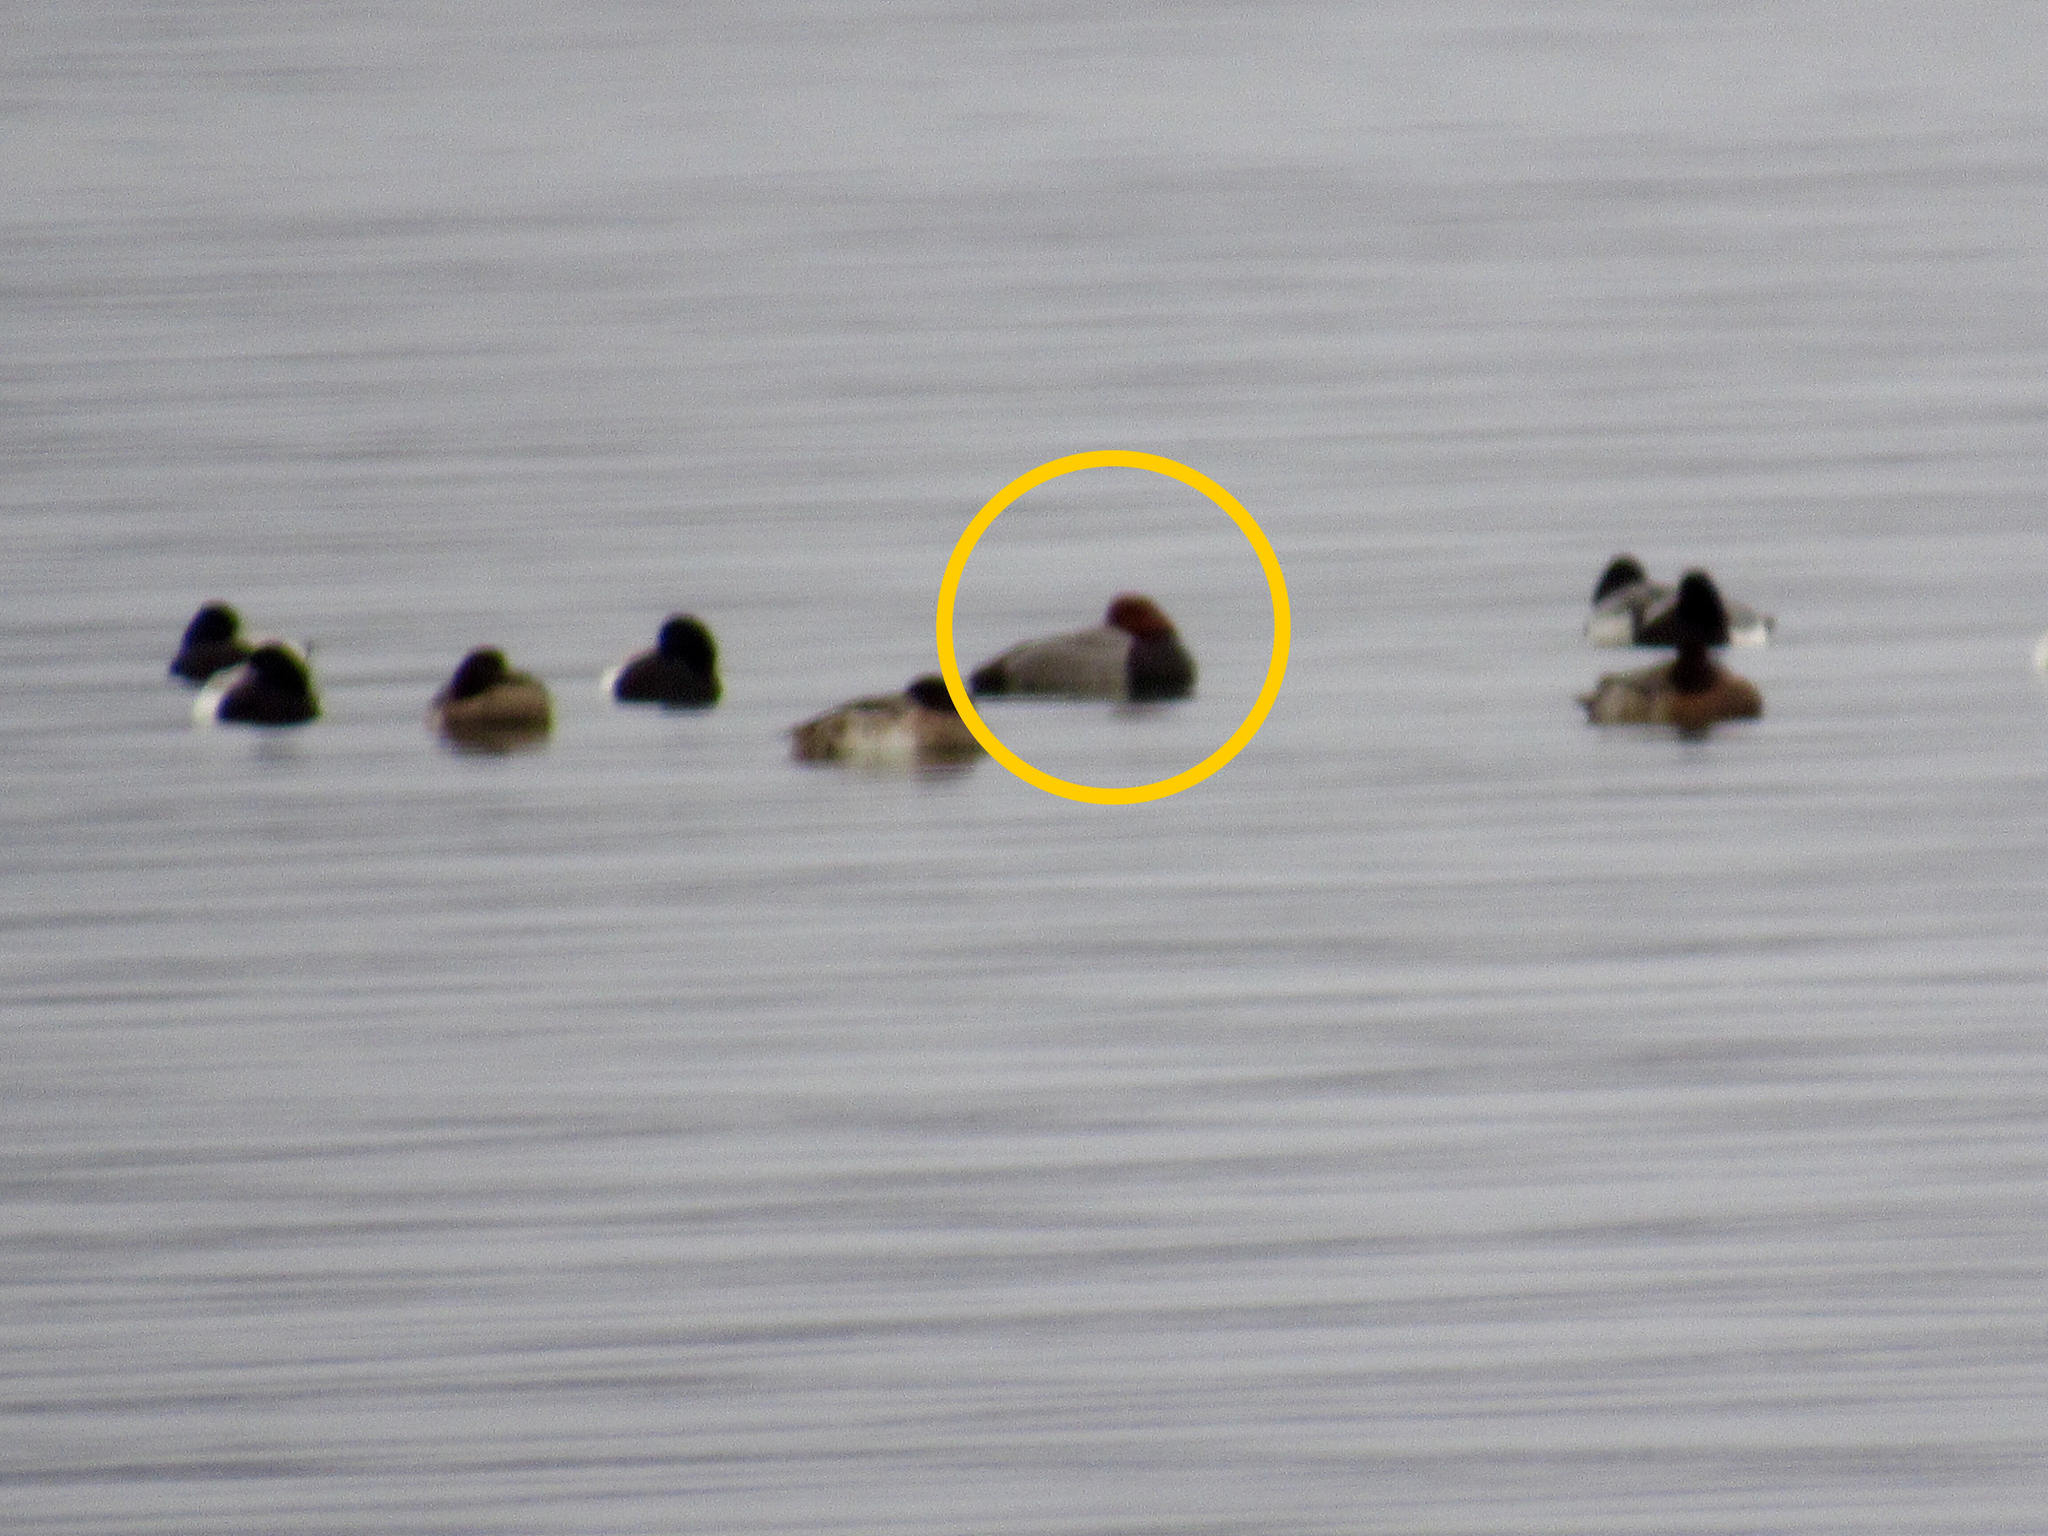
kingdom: Animalia
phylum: Chordata
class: Aves
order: Anseriformes
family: Anatidae
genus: Aythya
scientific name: Aythya americana
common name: Redhead
